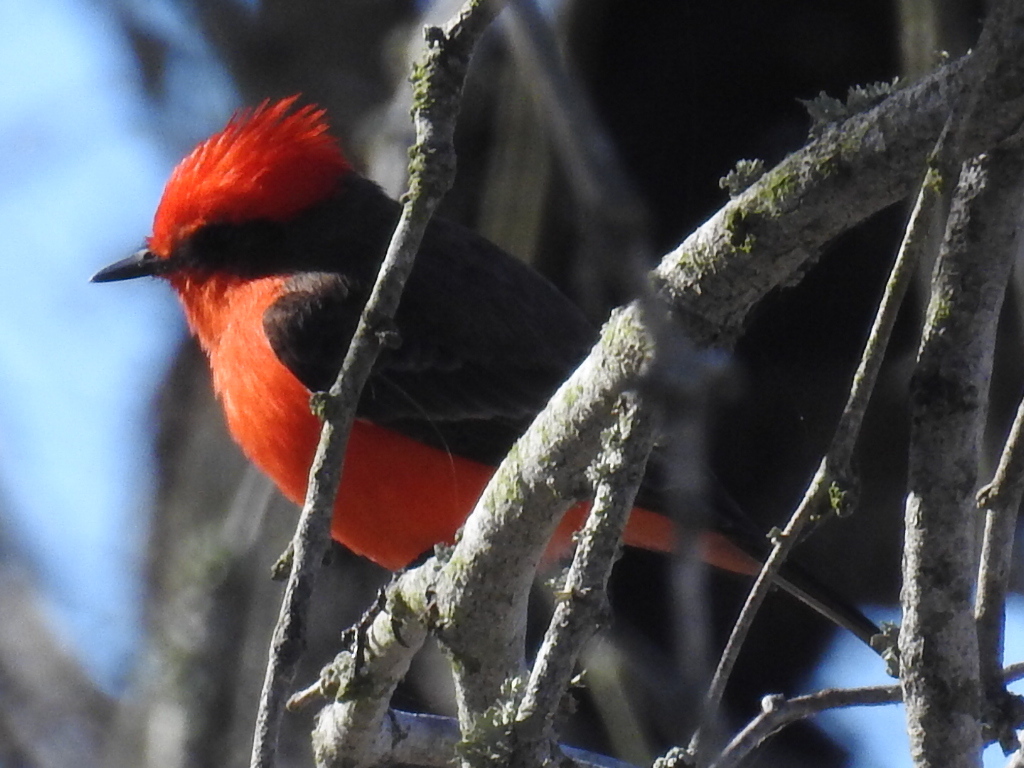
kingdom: Animalia
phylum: Chordata
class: Aves
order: Passeriformes
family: Tyrannidae
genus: Pyrocephalus
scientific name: Pyrocephalus rubinus
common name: Vermilion flycatcher
